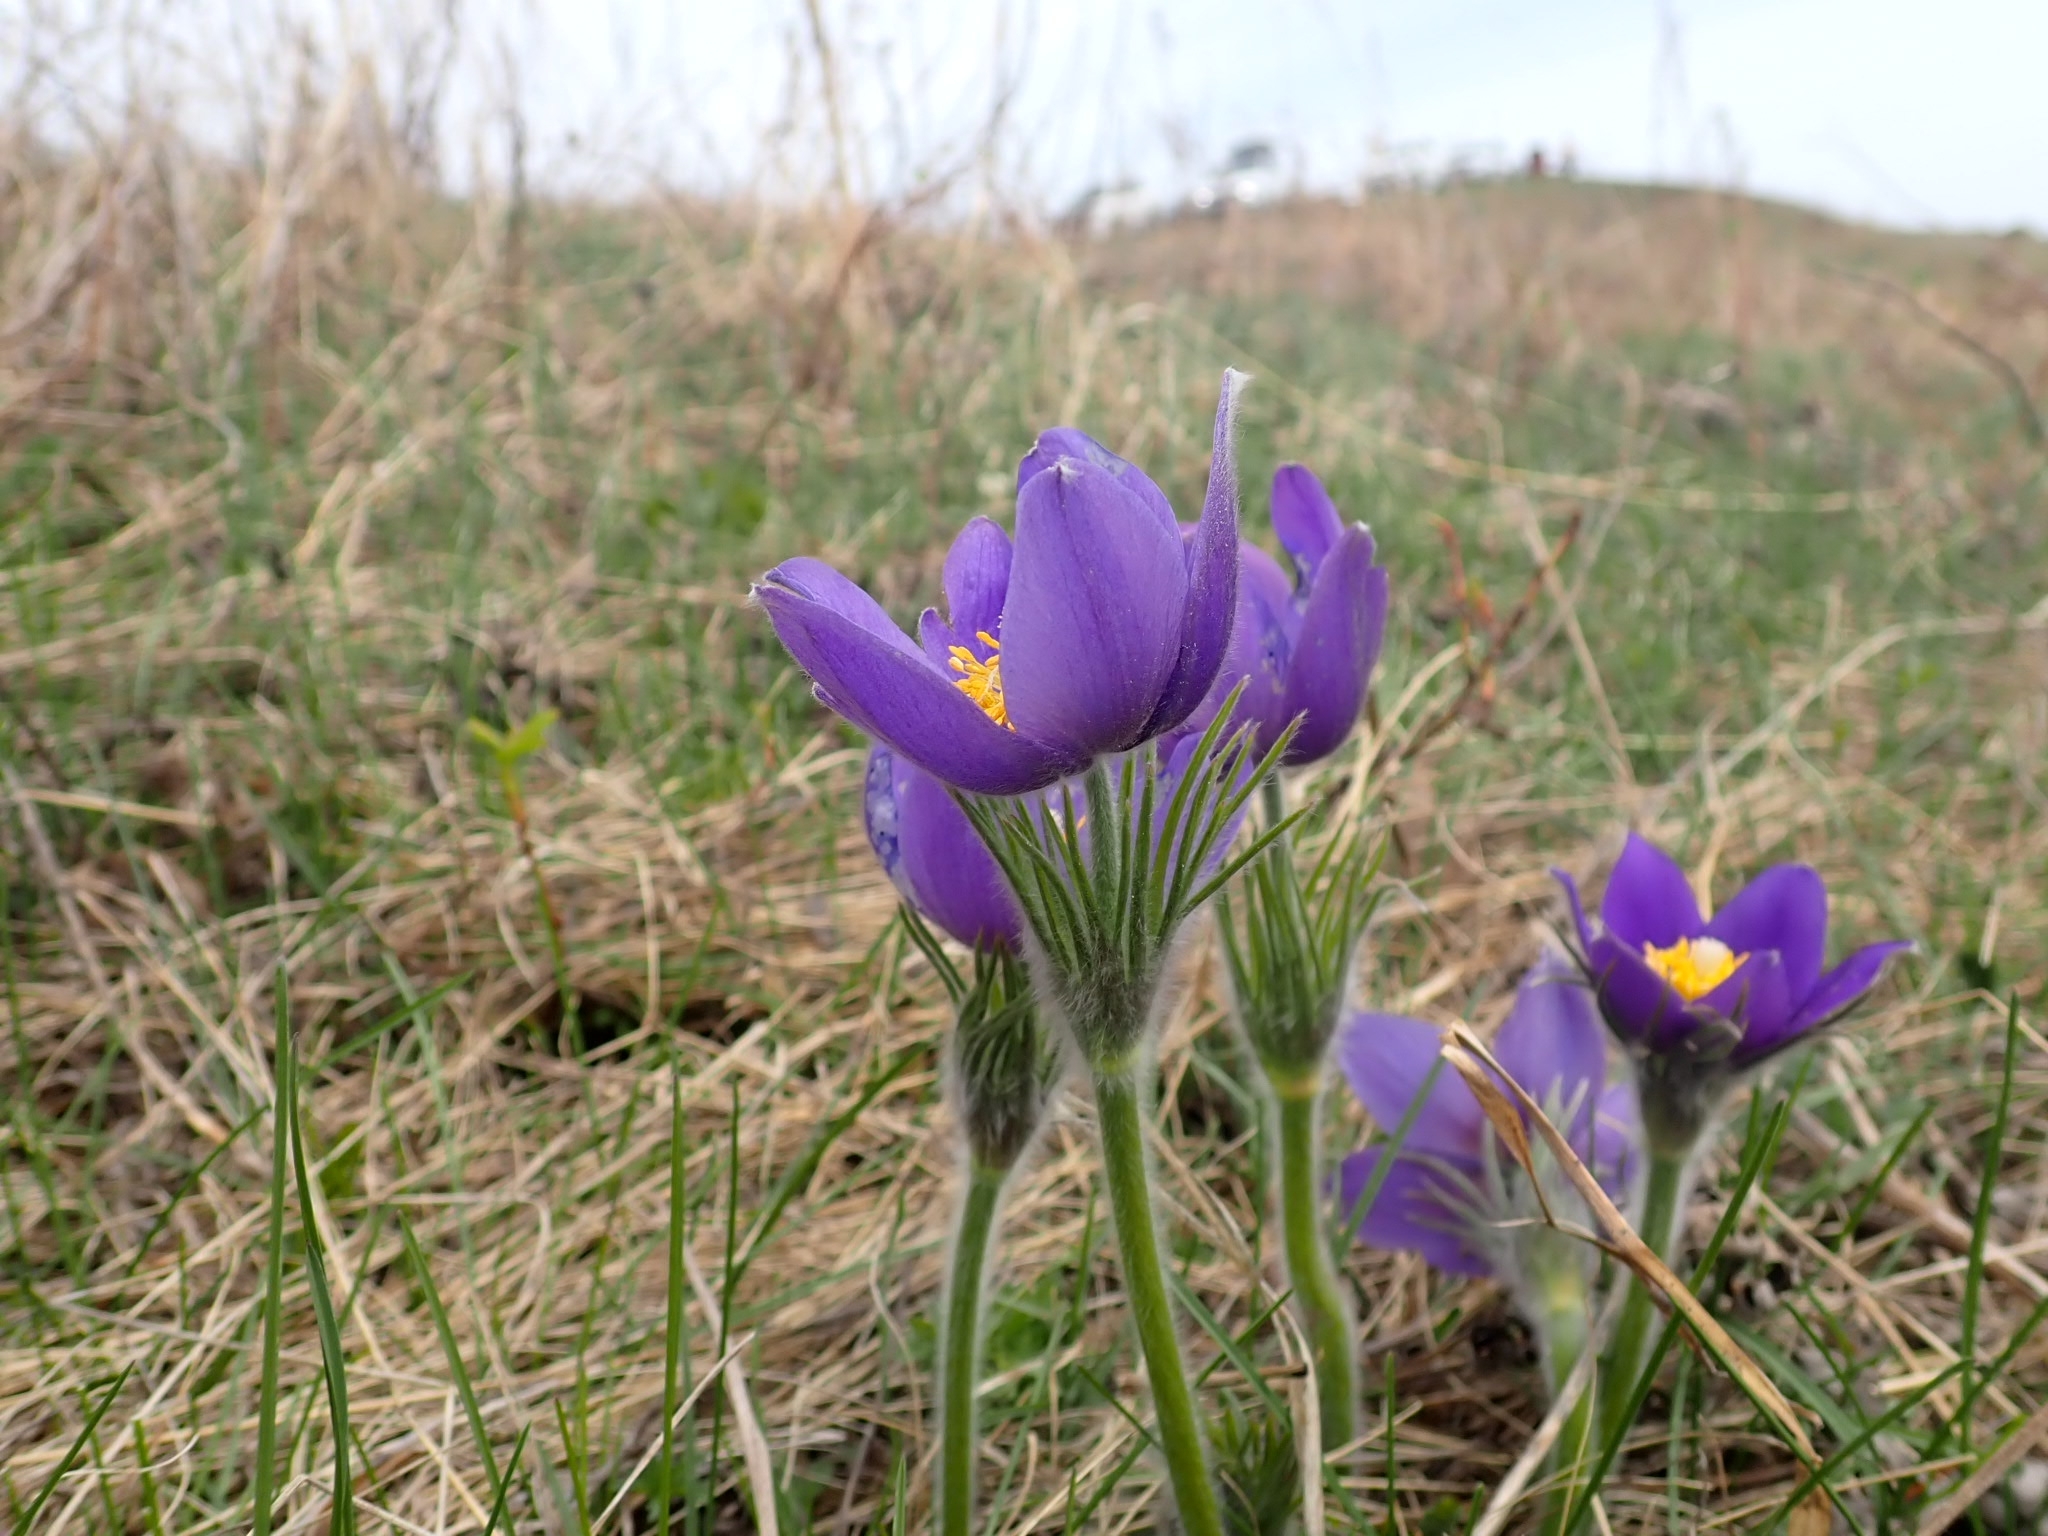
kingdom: Plantae
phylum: Tracheophyta
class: Magnoliopsida
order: Ranunculales
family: Ranunculaceae
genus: Pulsatilla
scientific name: Pulsatilla patens
